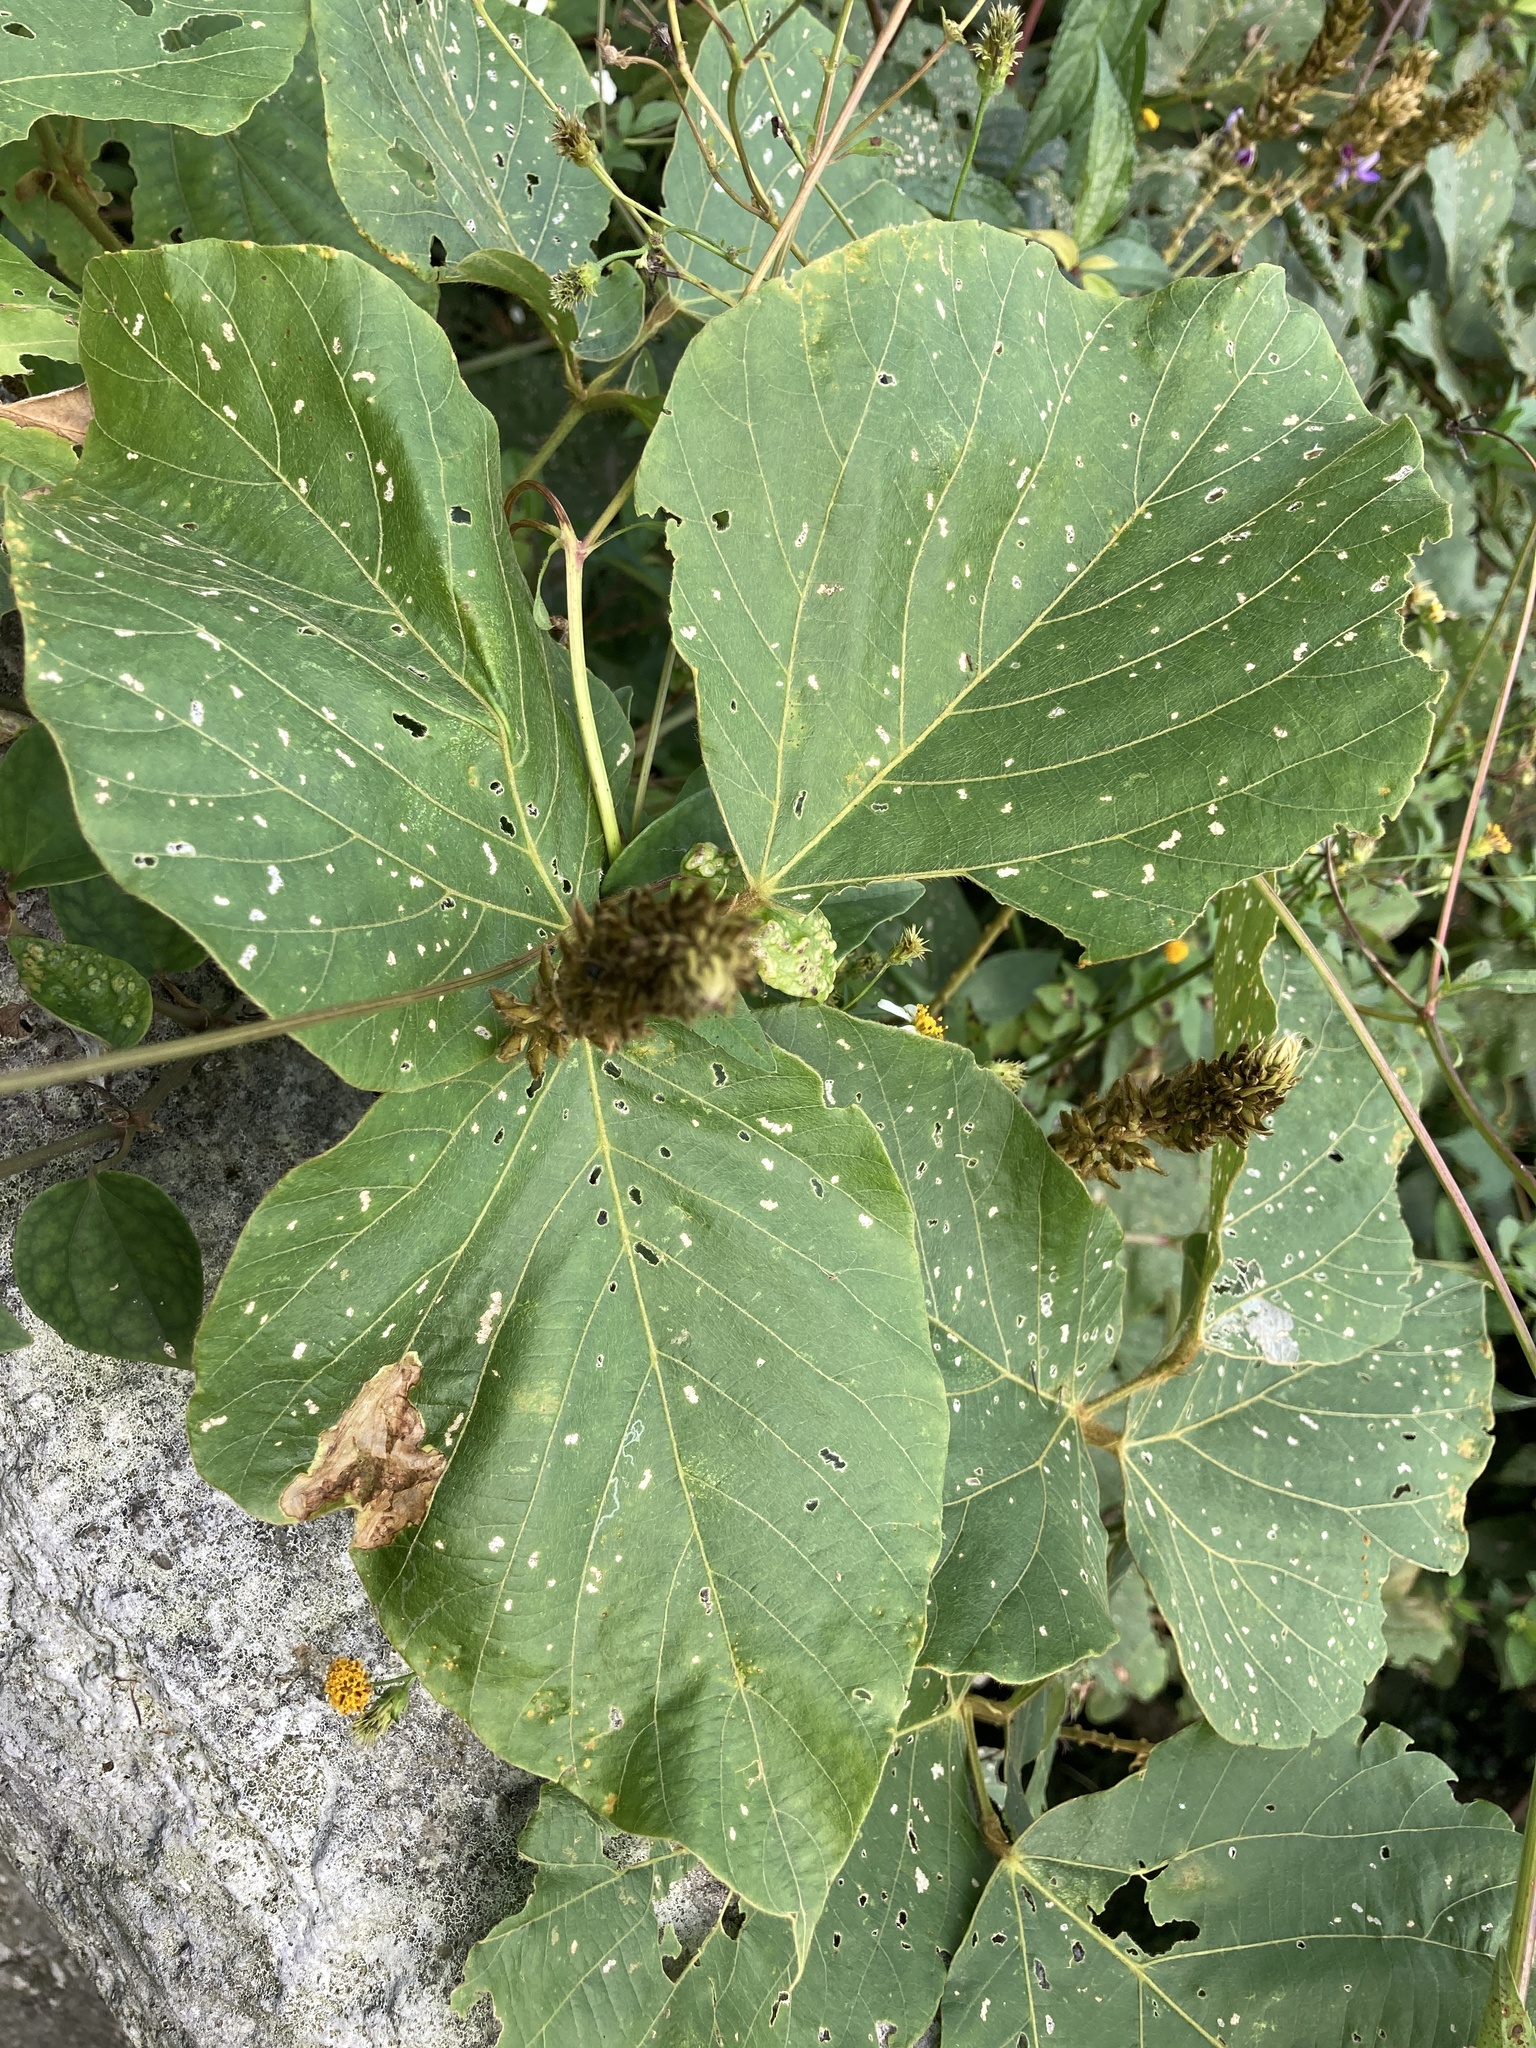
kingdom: Plantae
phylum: Tracheophyta
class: Magnoliopsida
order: Fabales
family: Fabaceae
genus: Pueraria
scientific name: Pueraria montana
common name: Kudzu
